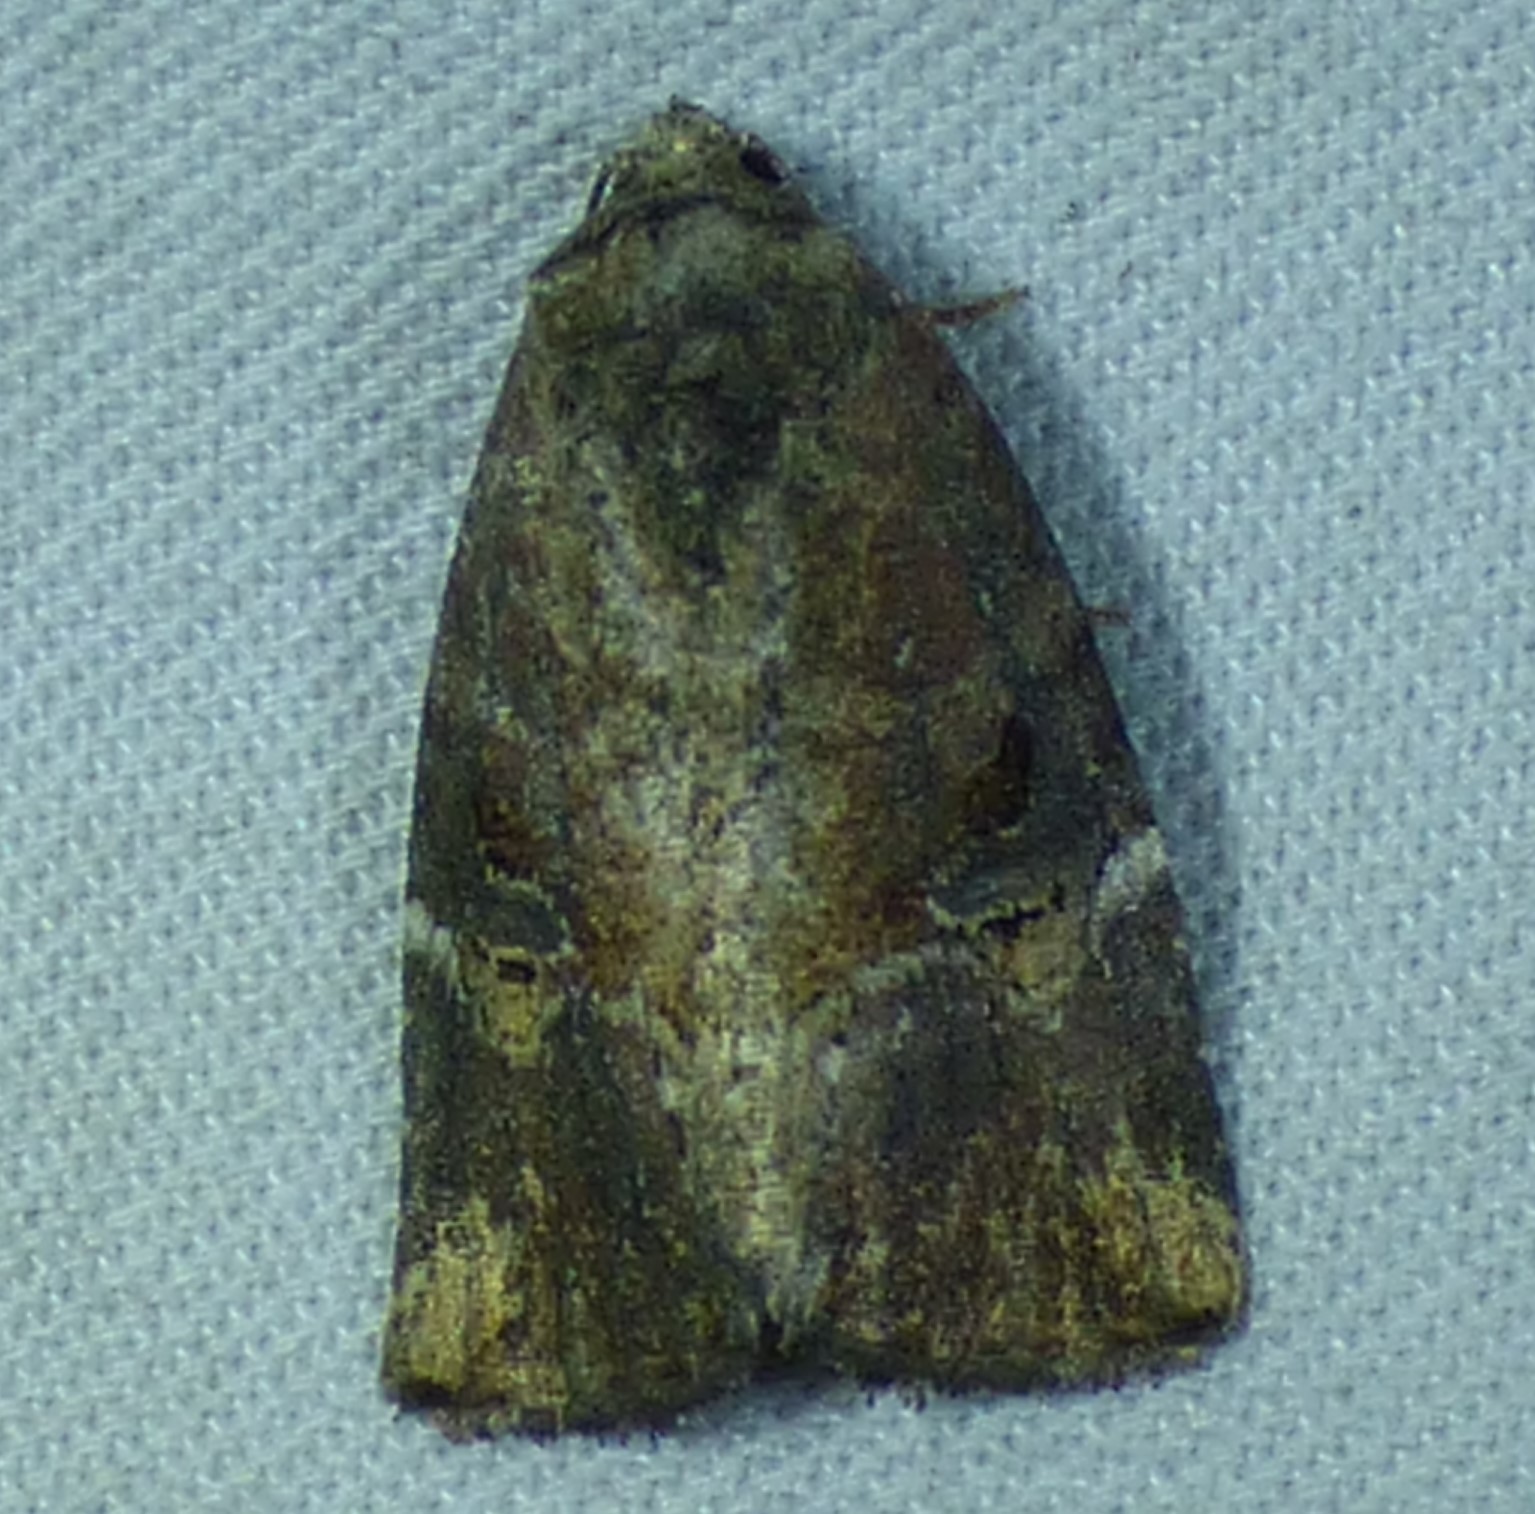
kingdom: Animalia
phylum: Arthropoda
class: Insecta
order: Lepidoptera
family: Noctuidae
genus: Elaphria
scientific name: Elaphria versicolor
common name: Fir harlequin
